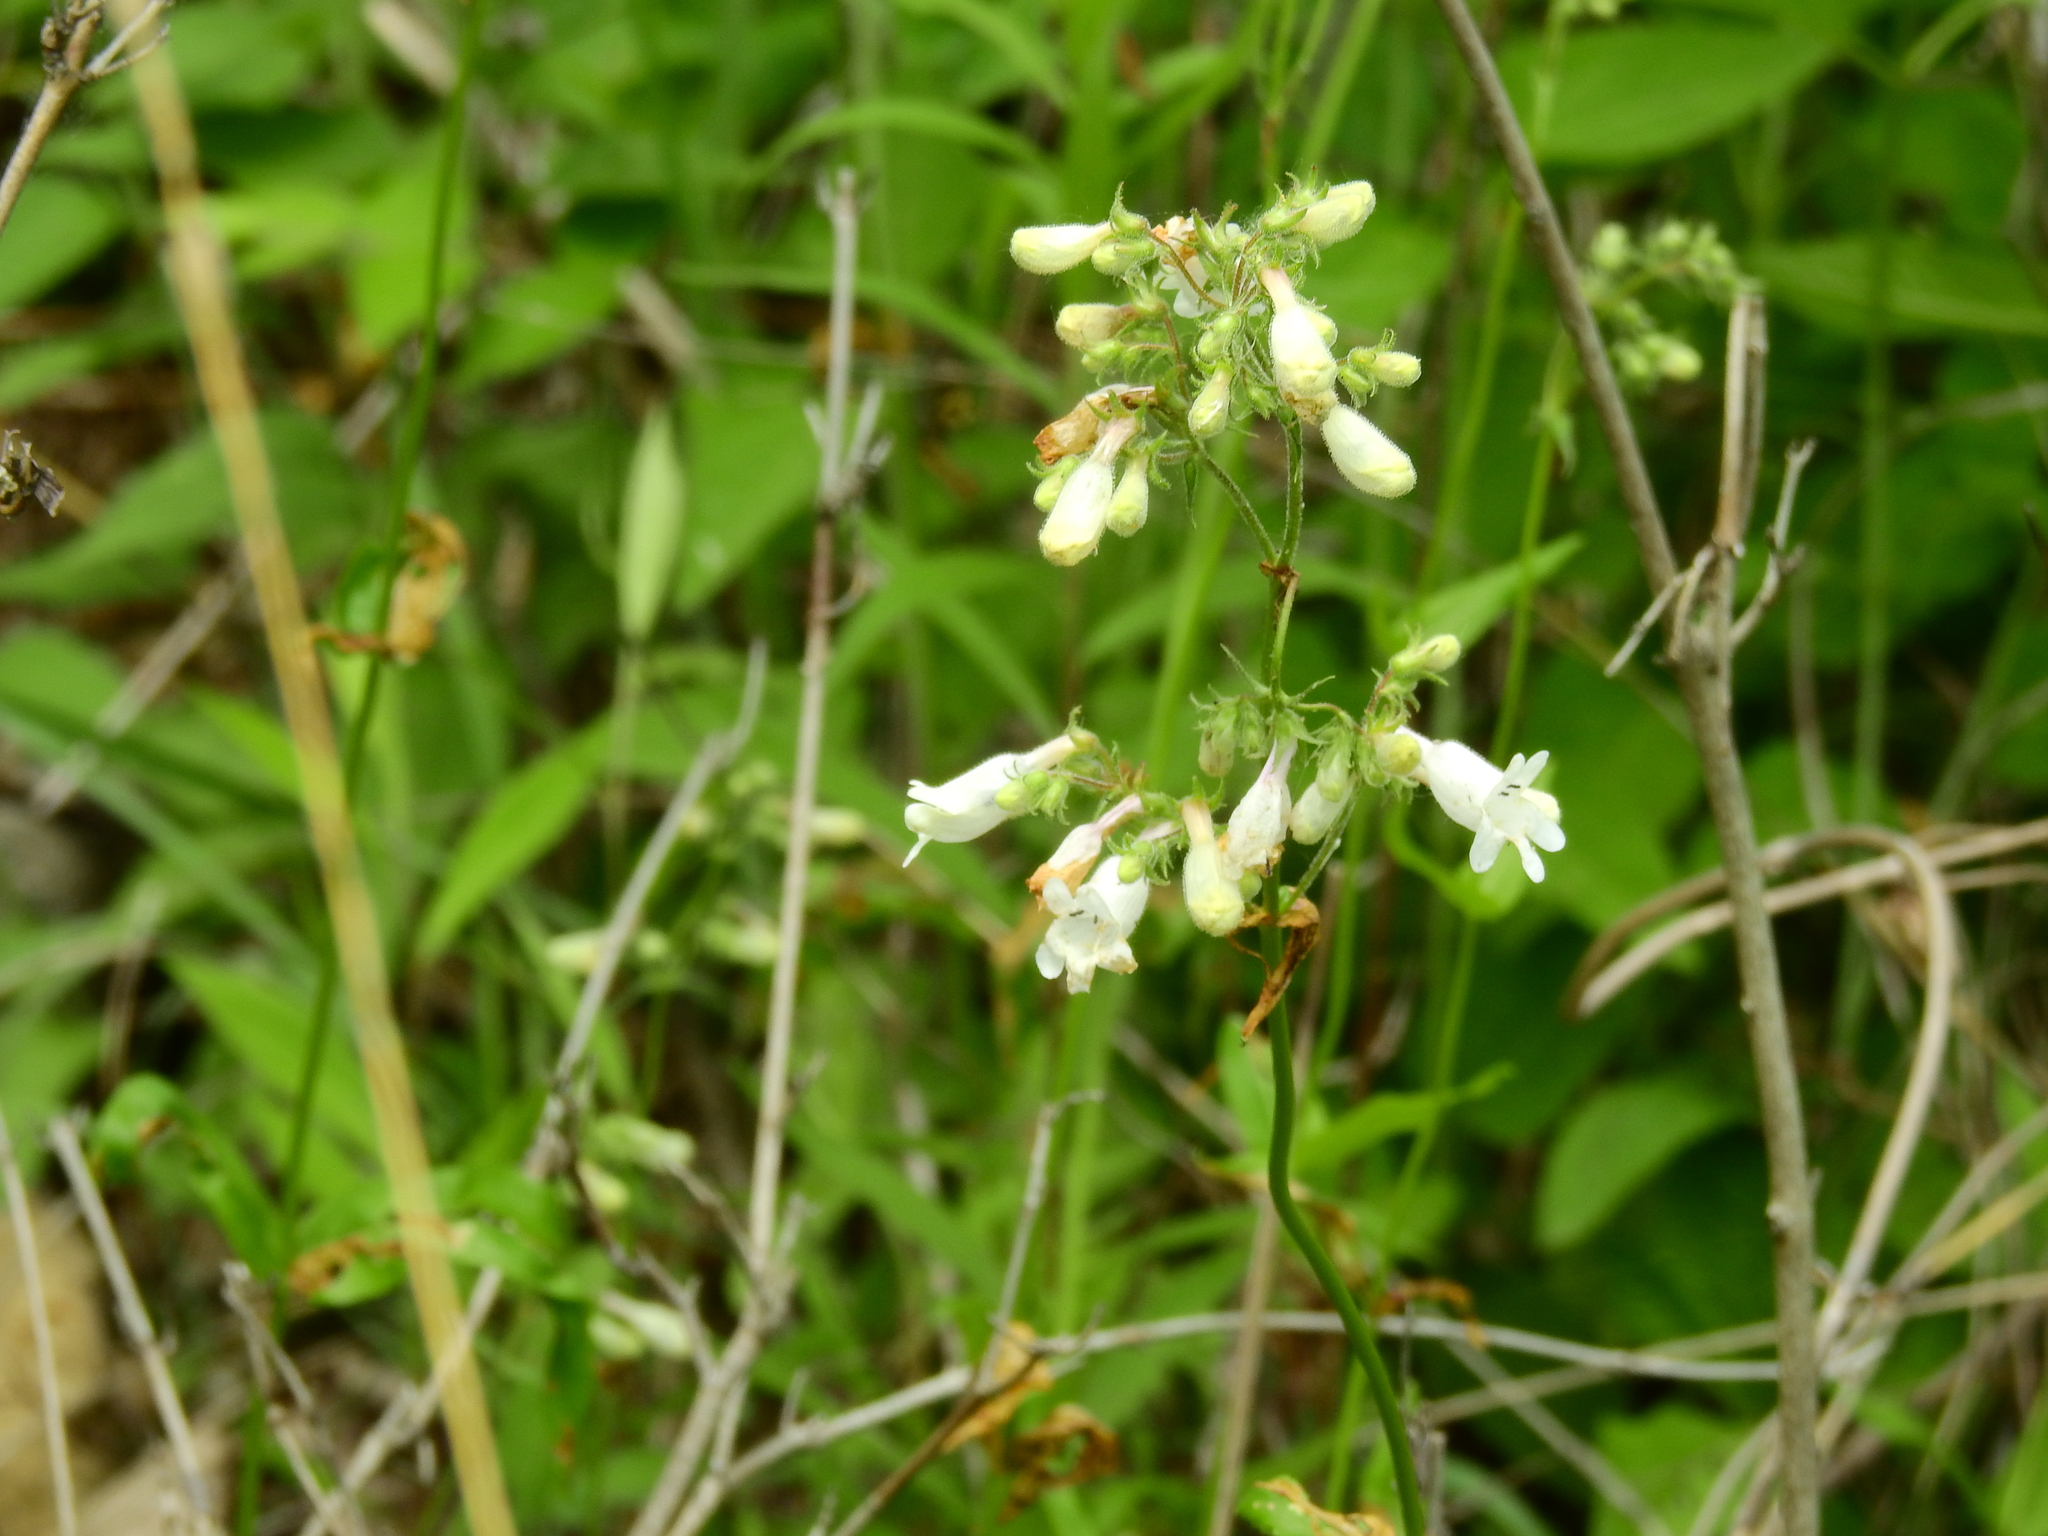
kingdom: Plantae
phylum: Tracheophyta
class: Magnoliopsida
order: Lamiales
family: Plantaginaceae
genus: Penstemon
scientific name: Penstemon digitalis
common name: Foxglove beardtongue
